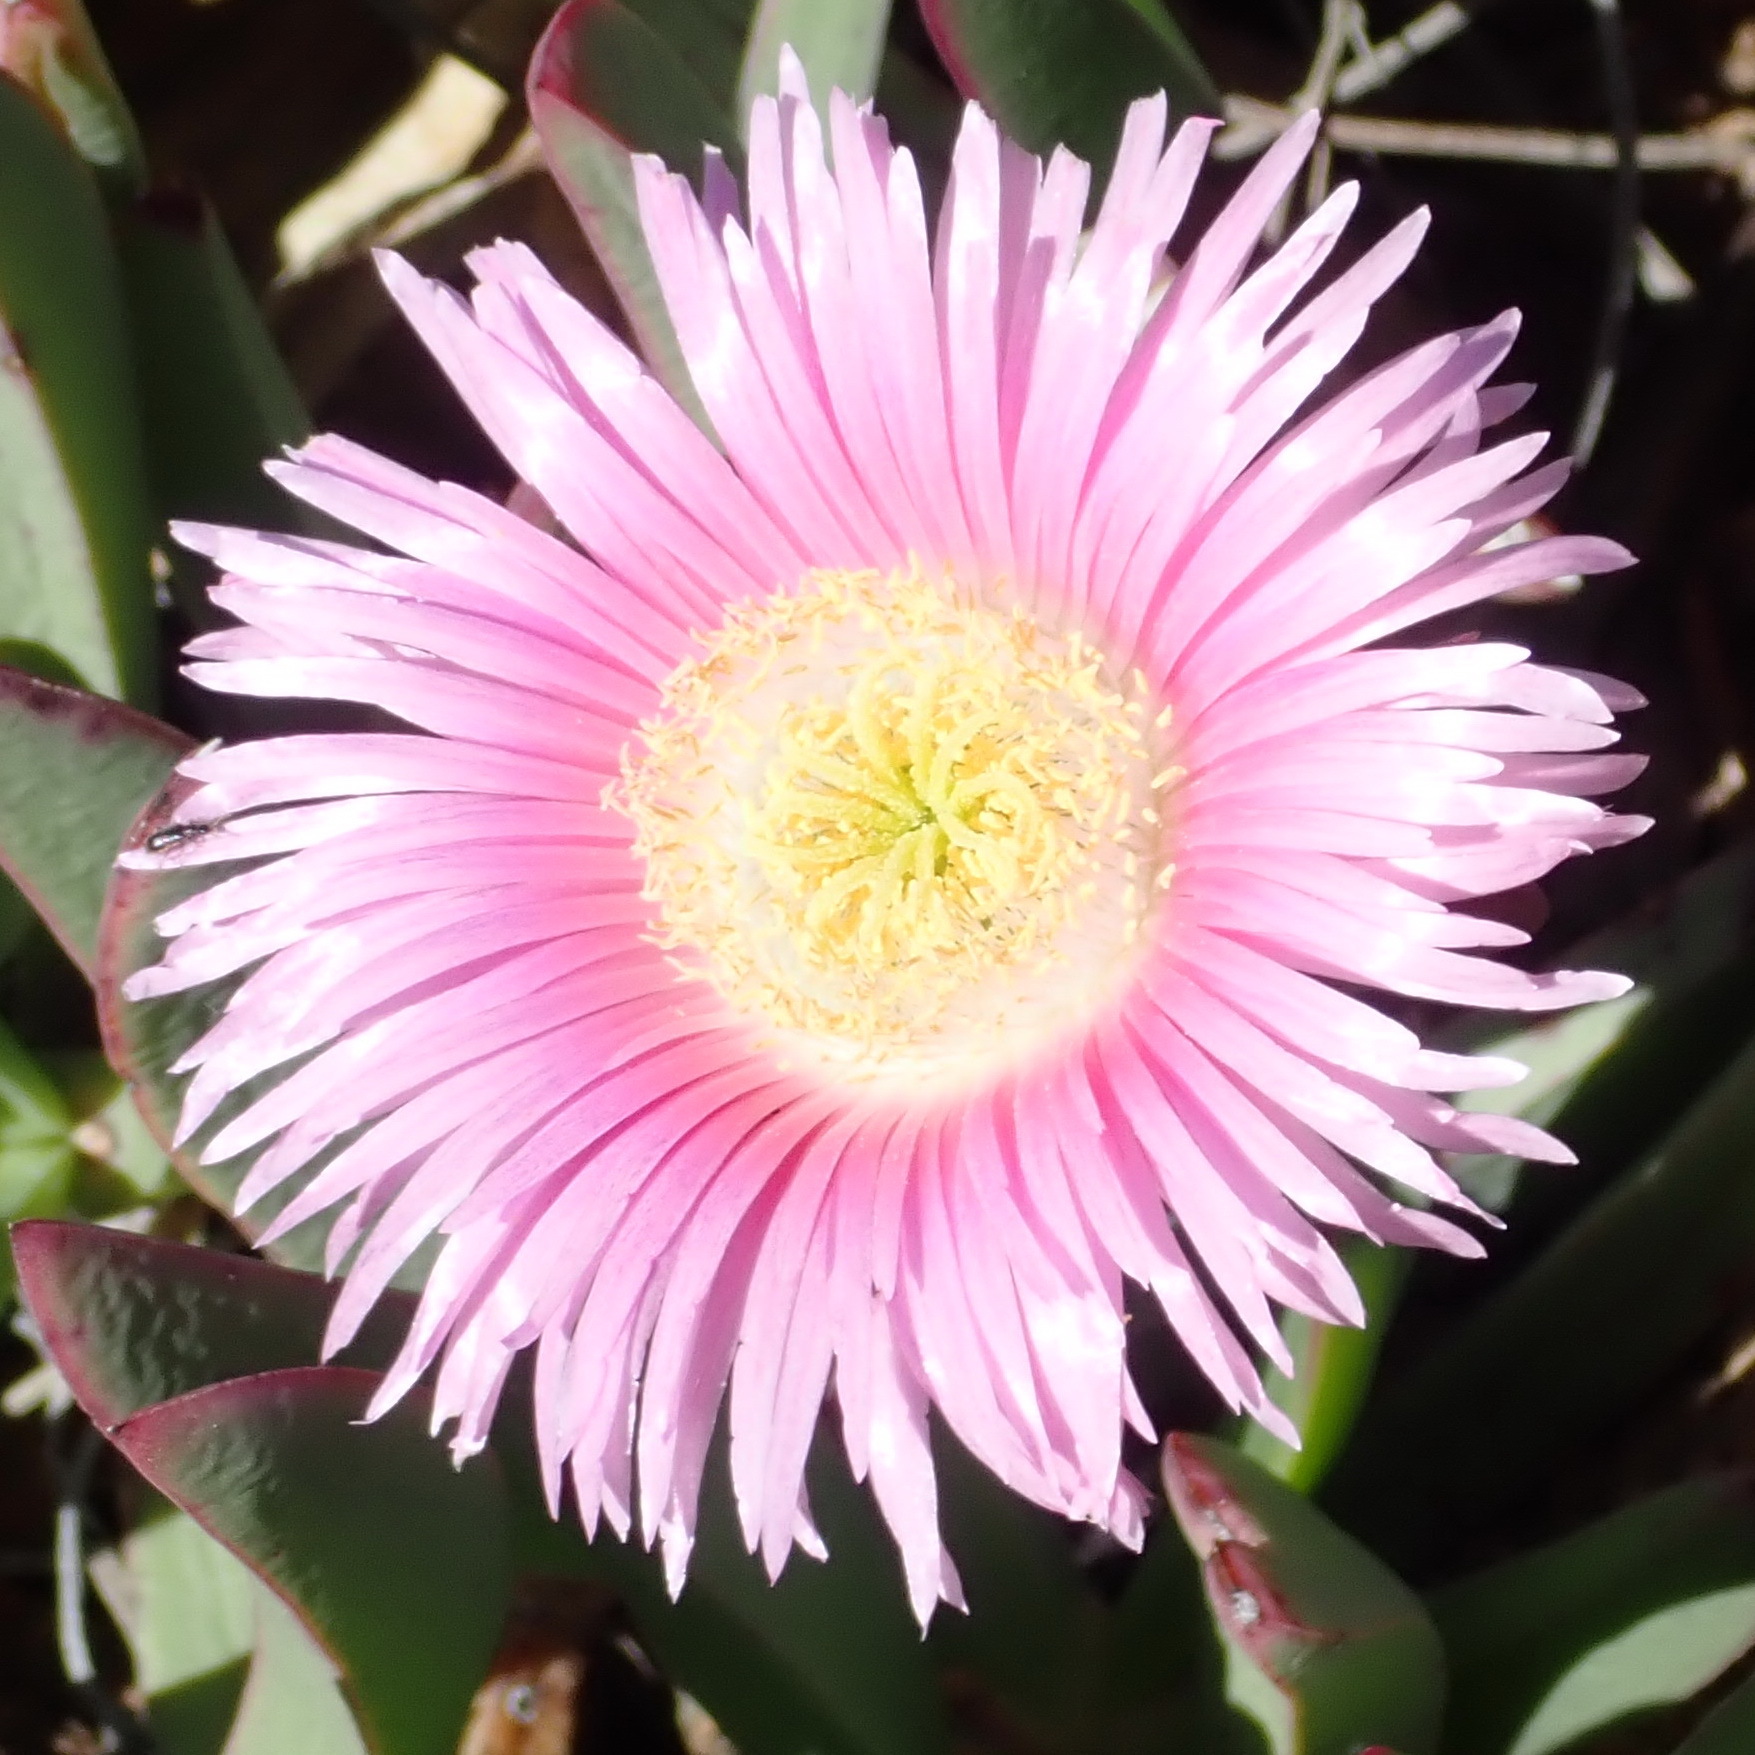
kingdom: Plantae
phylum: Tracheophyta
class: Magnoliopsida
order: Caryophyllales
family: Aizoaceae
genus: Carpobrotus
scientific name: Carpobrotus mellei
